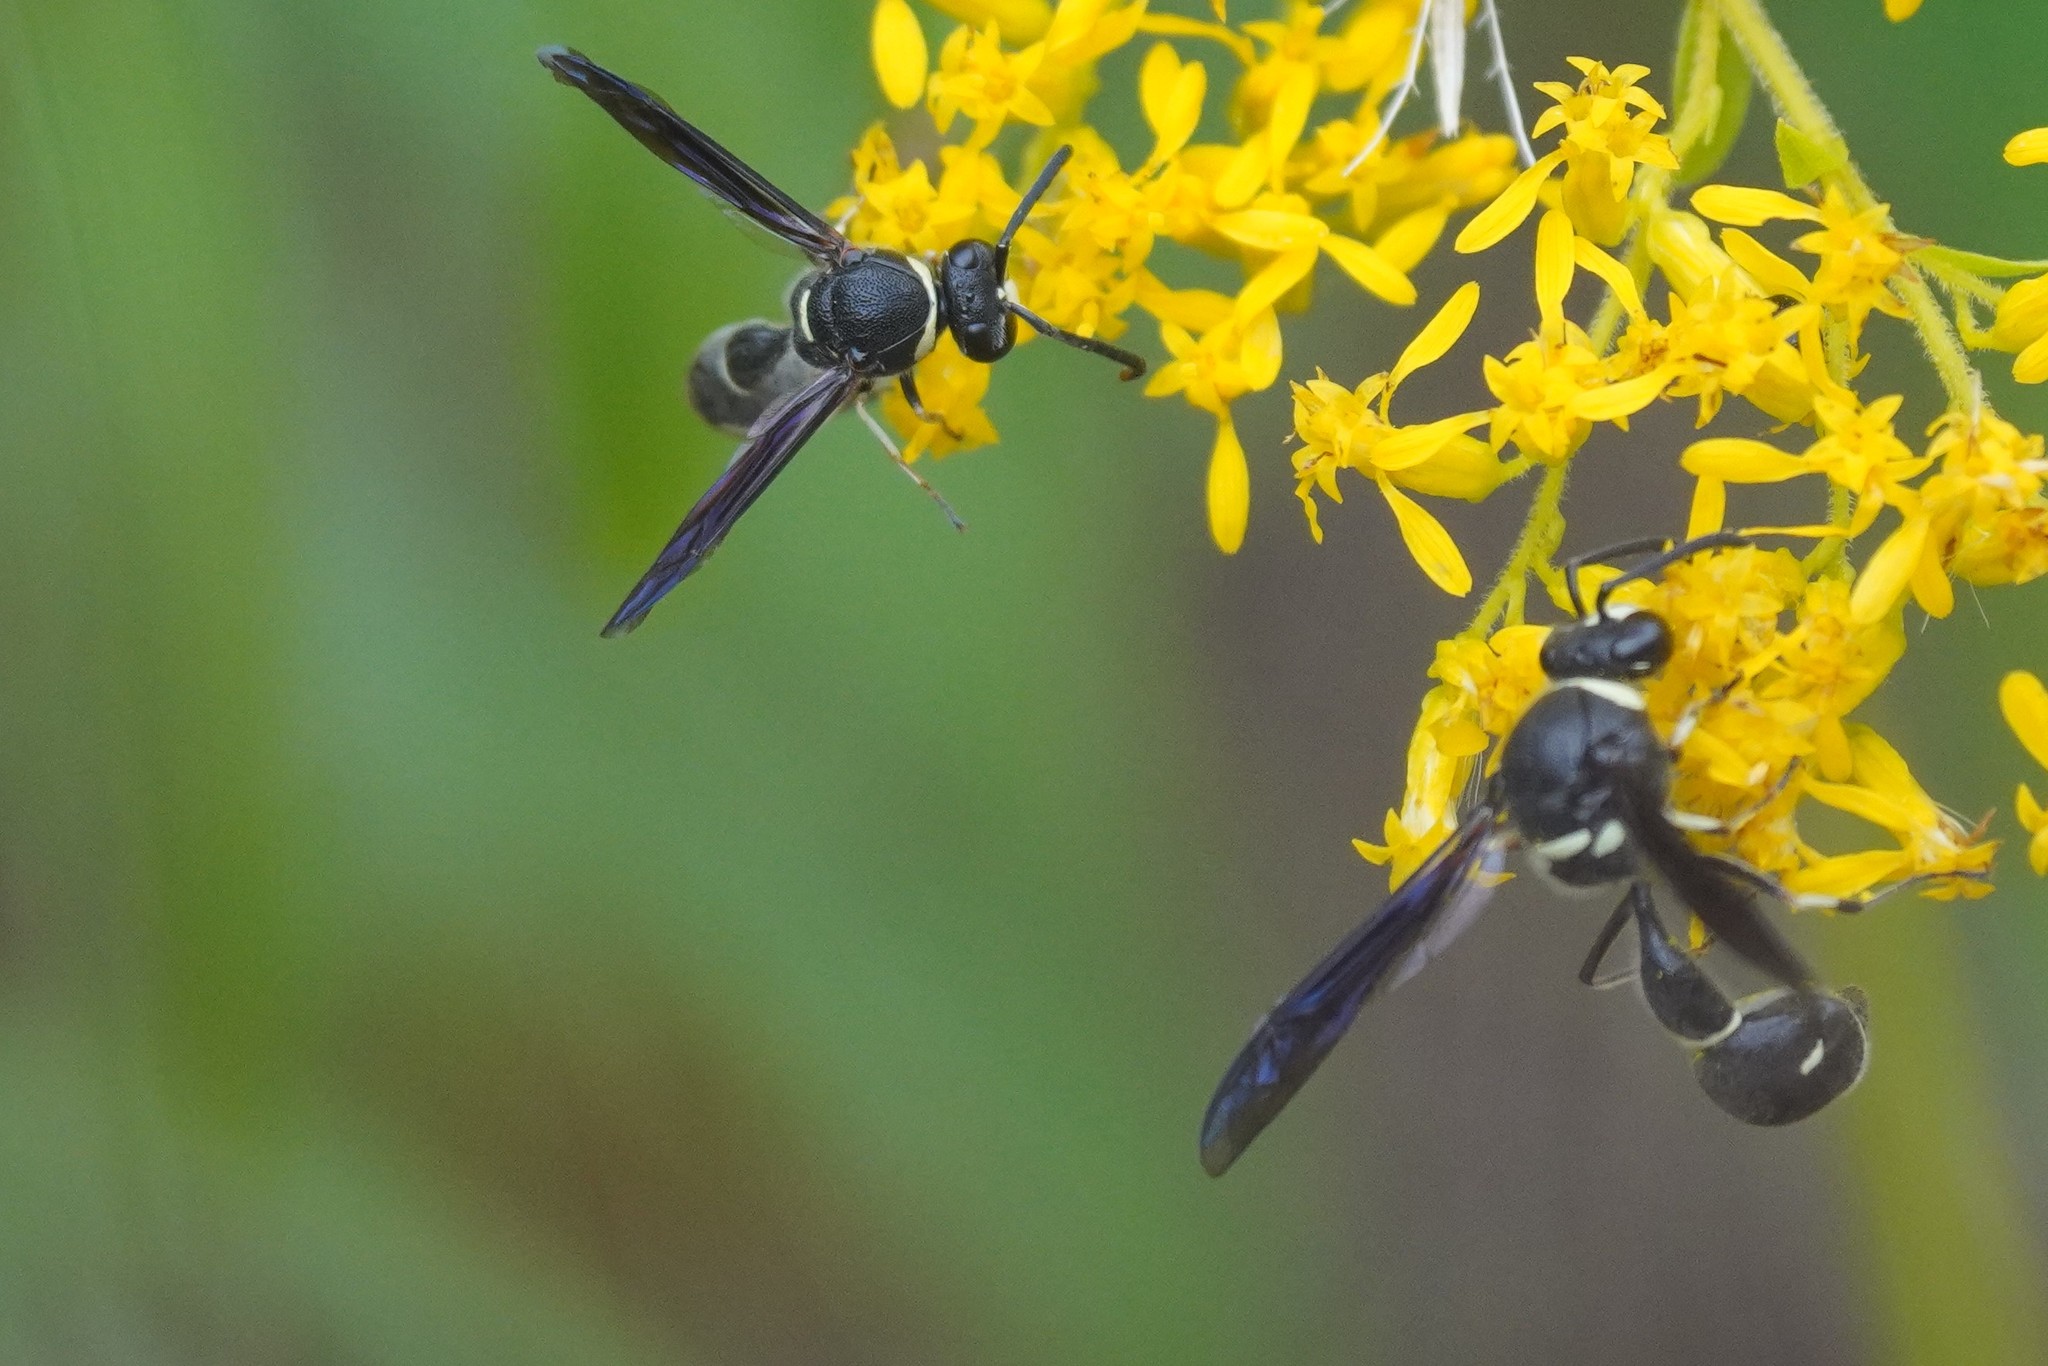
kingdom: Animalia
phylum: Arthropoda
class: Insecta
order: Hymenoptera
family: Vespidae
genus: Eumenes
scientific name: Eumenes fraternus
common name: Fraternal potter wasp
